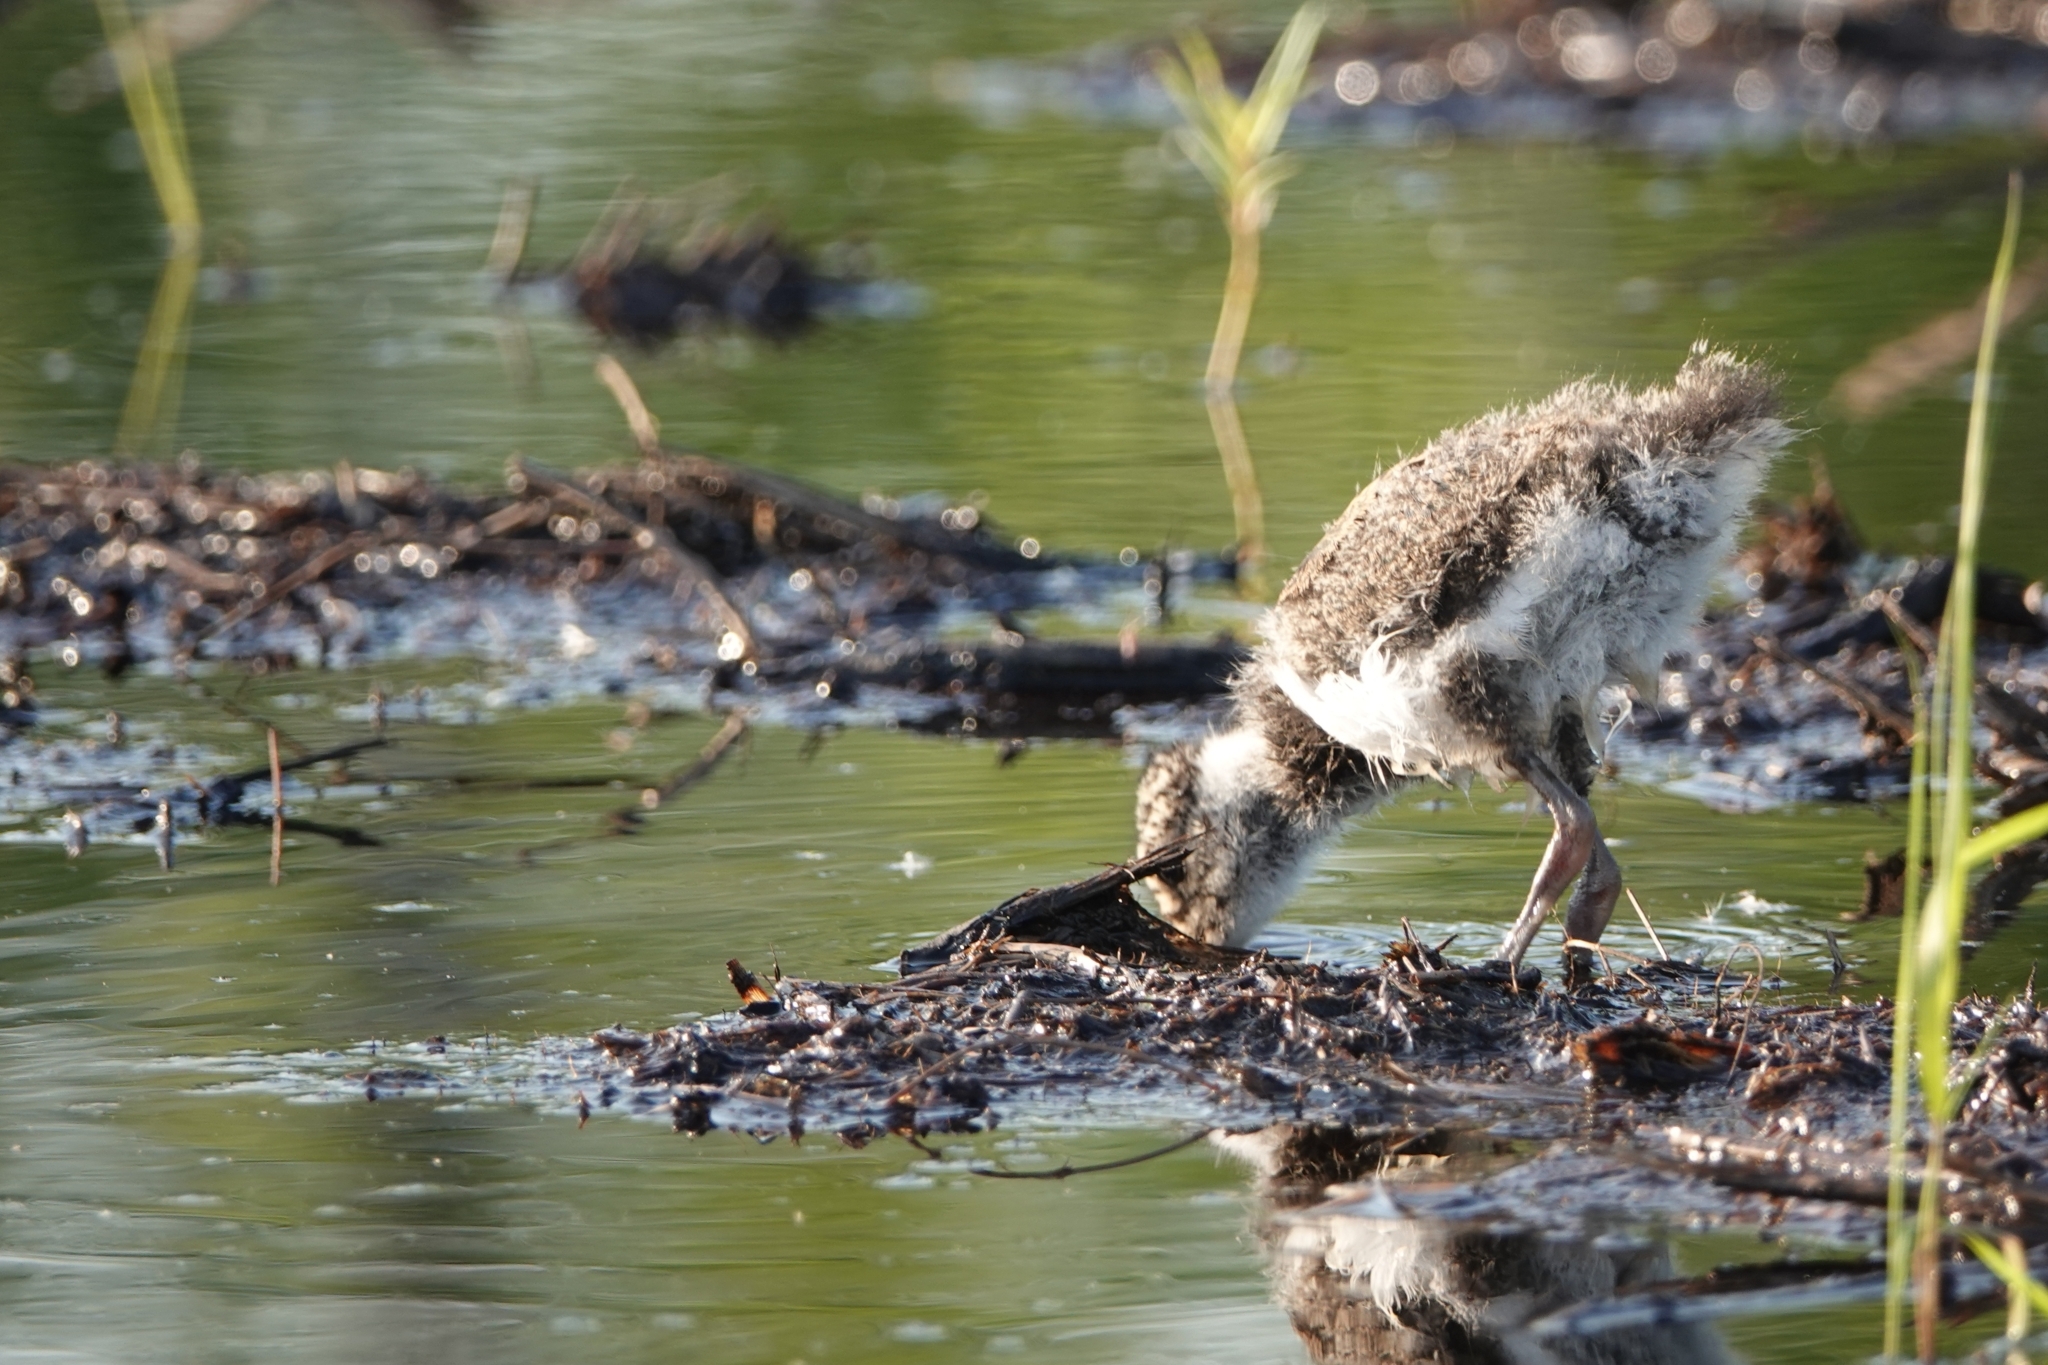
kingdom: Animalia
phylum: Chordata
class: Aves
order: Charadriiformes
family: Charadriidae
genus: Vanellus
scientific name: Vanellus vanellus
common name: Northern lapwing
